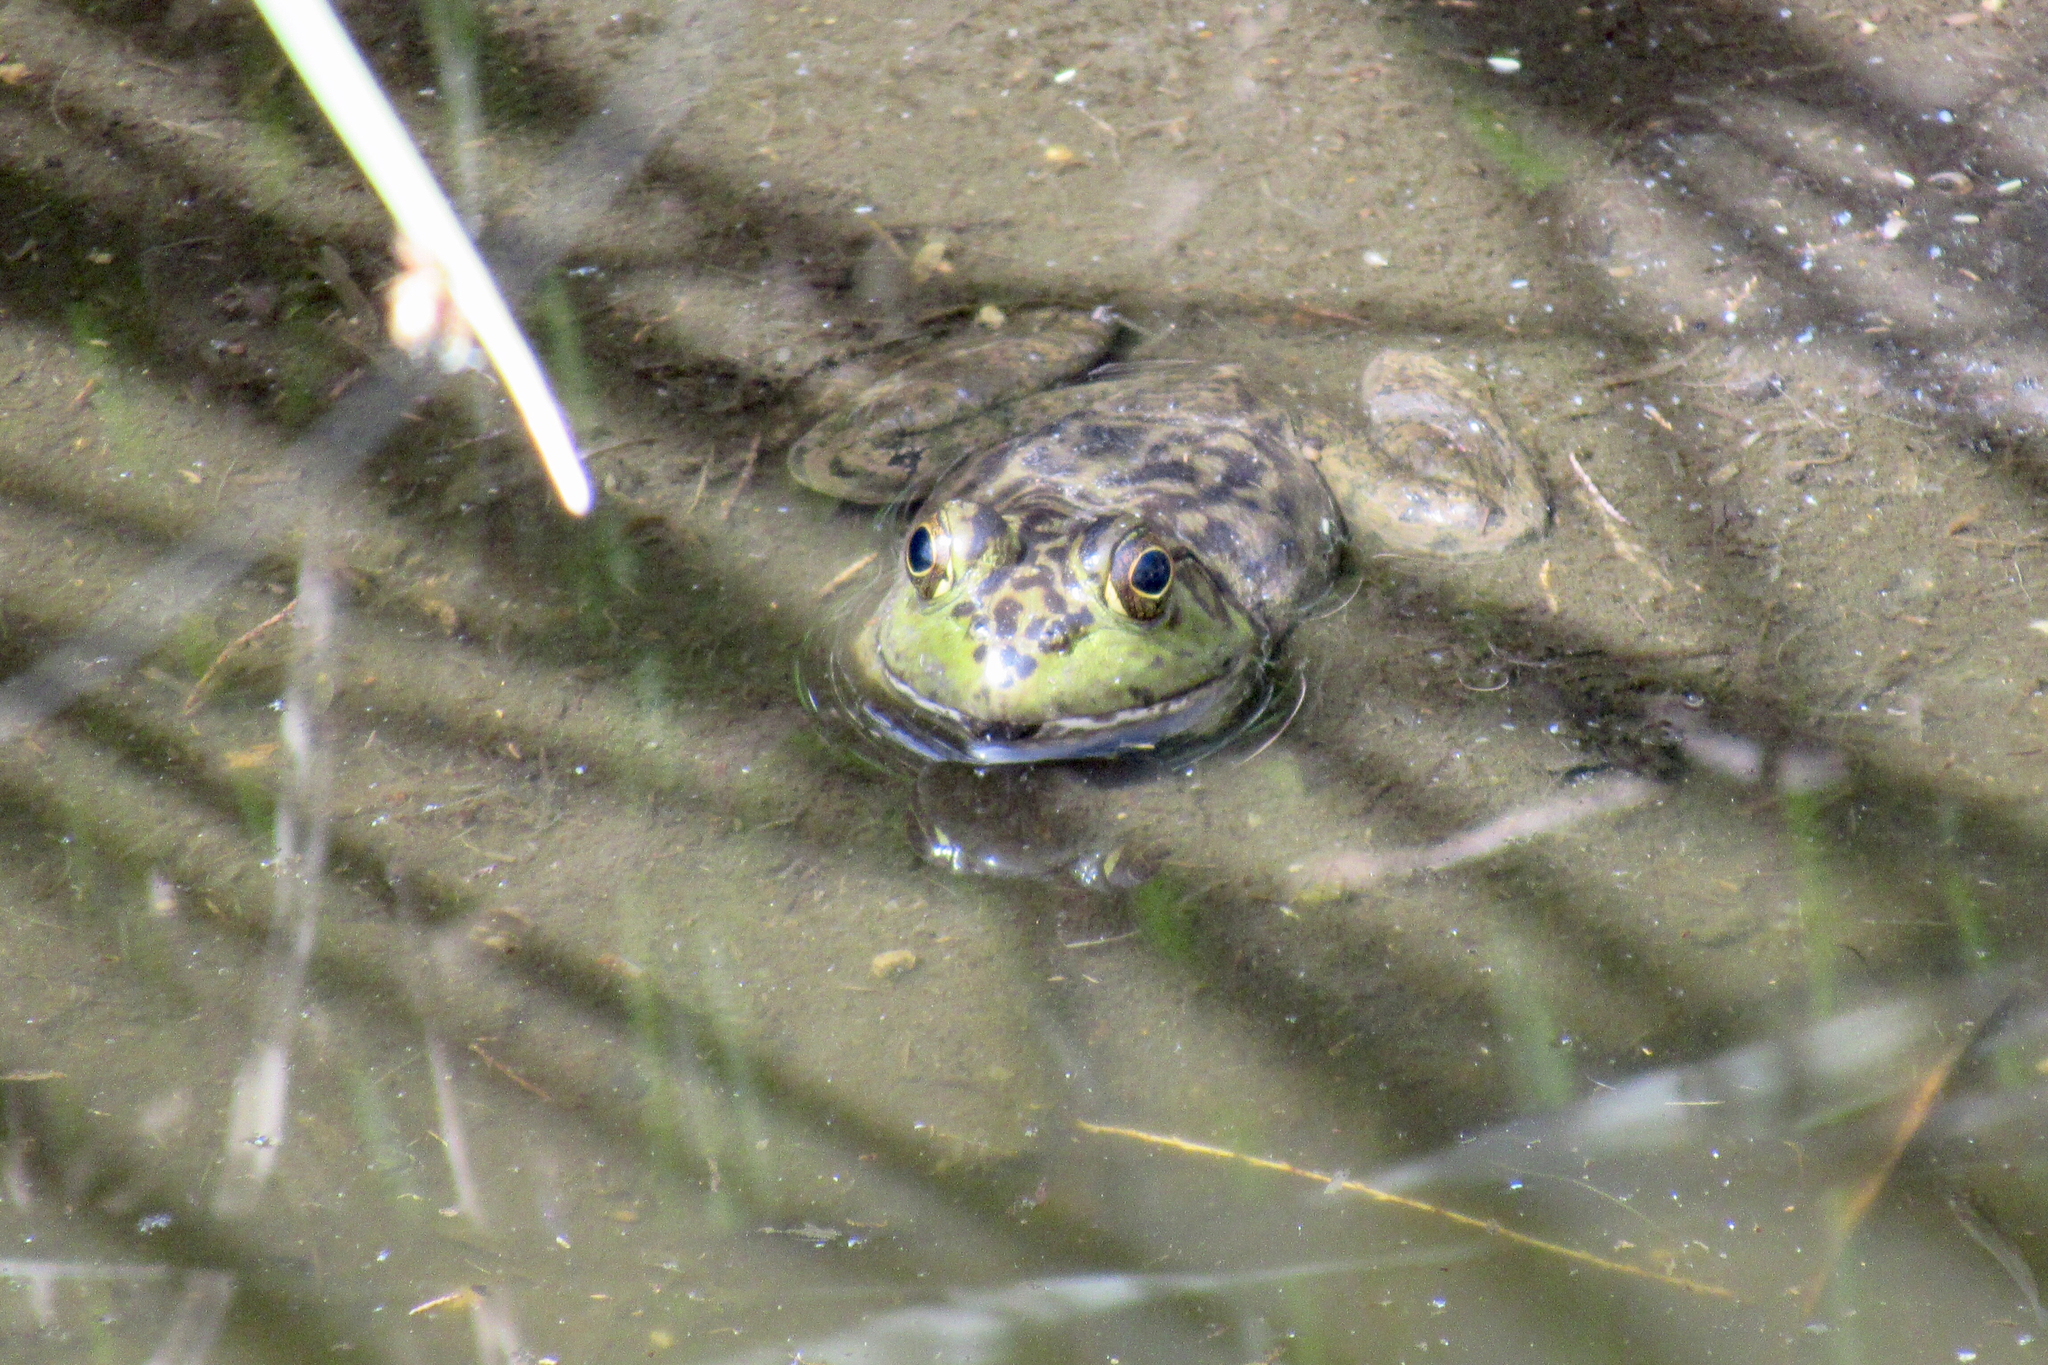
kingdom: Animalia
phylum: Chordata
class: Amphibia
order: Anura
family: Ranidae
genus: Lithobates
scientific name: Lithobates catesbeianus
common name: American bullfrog
